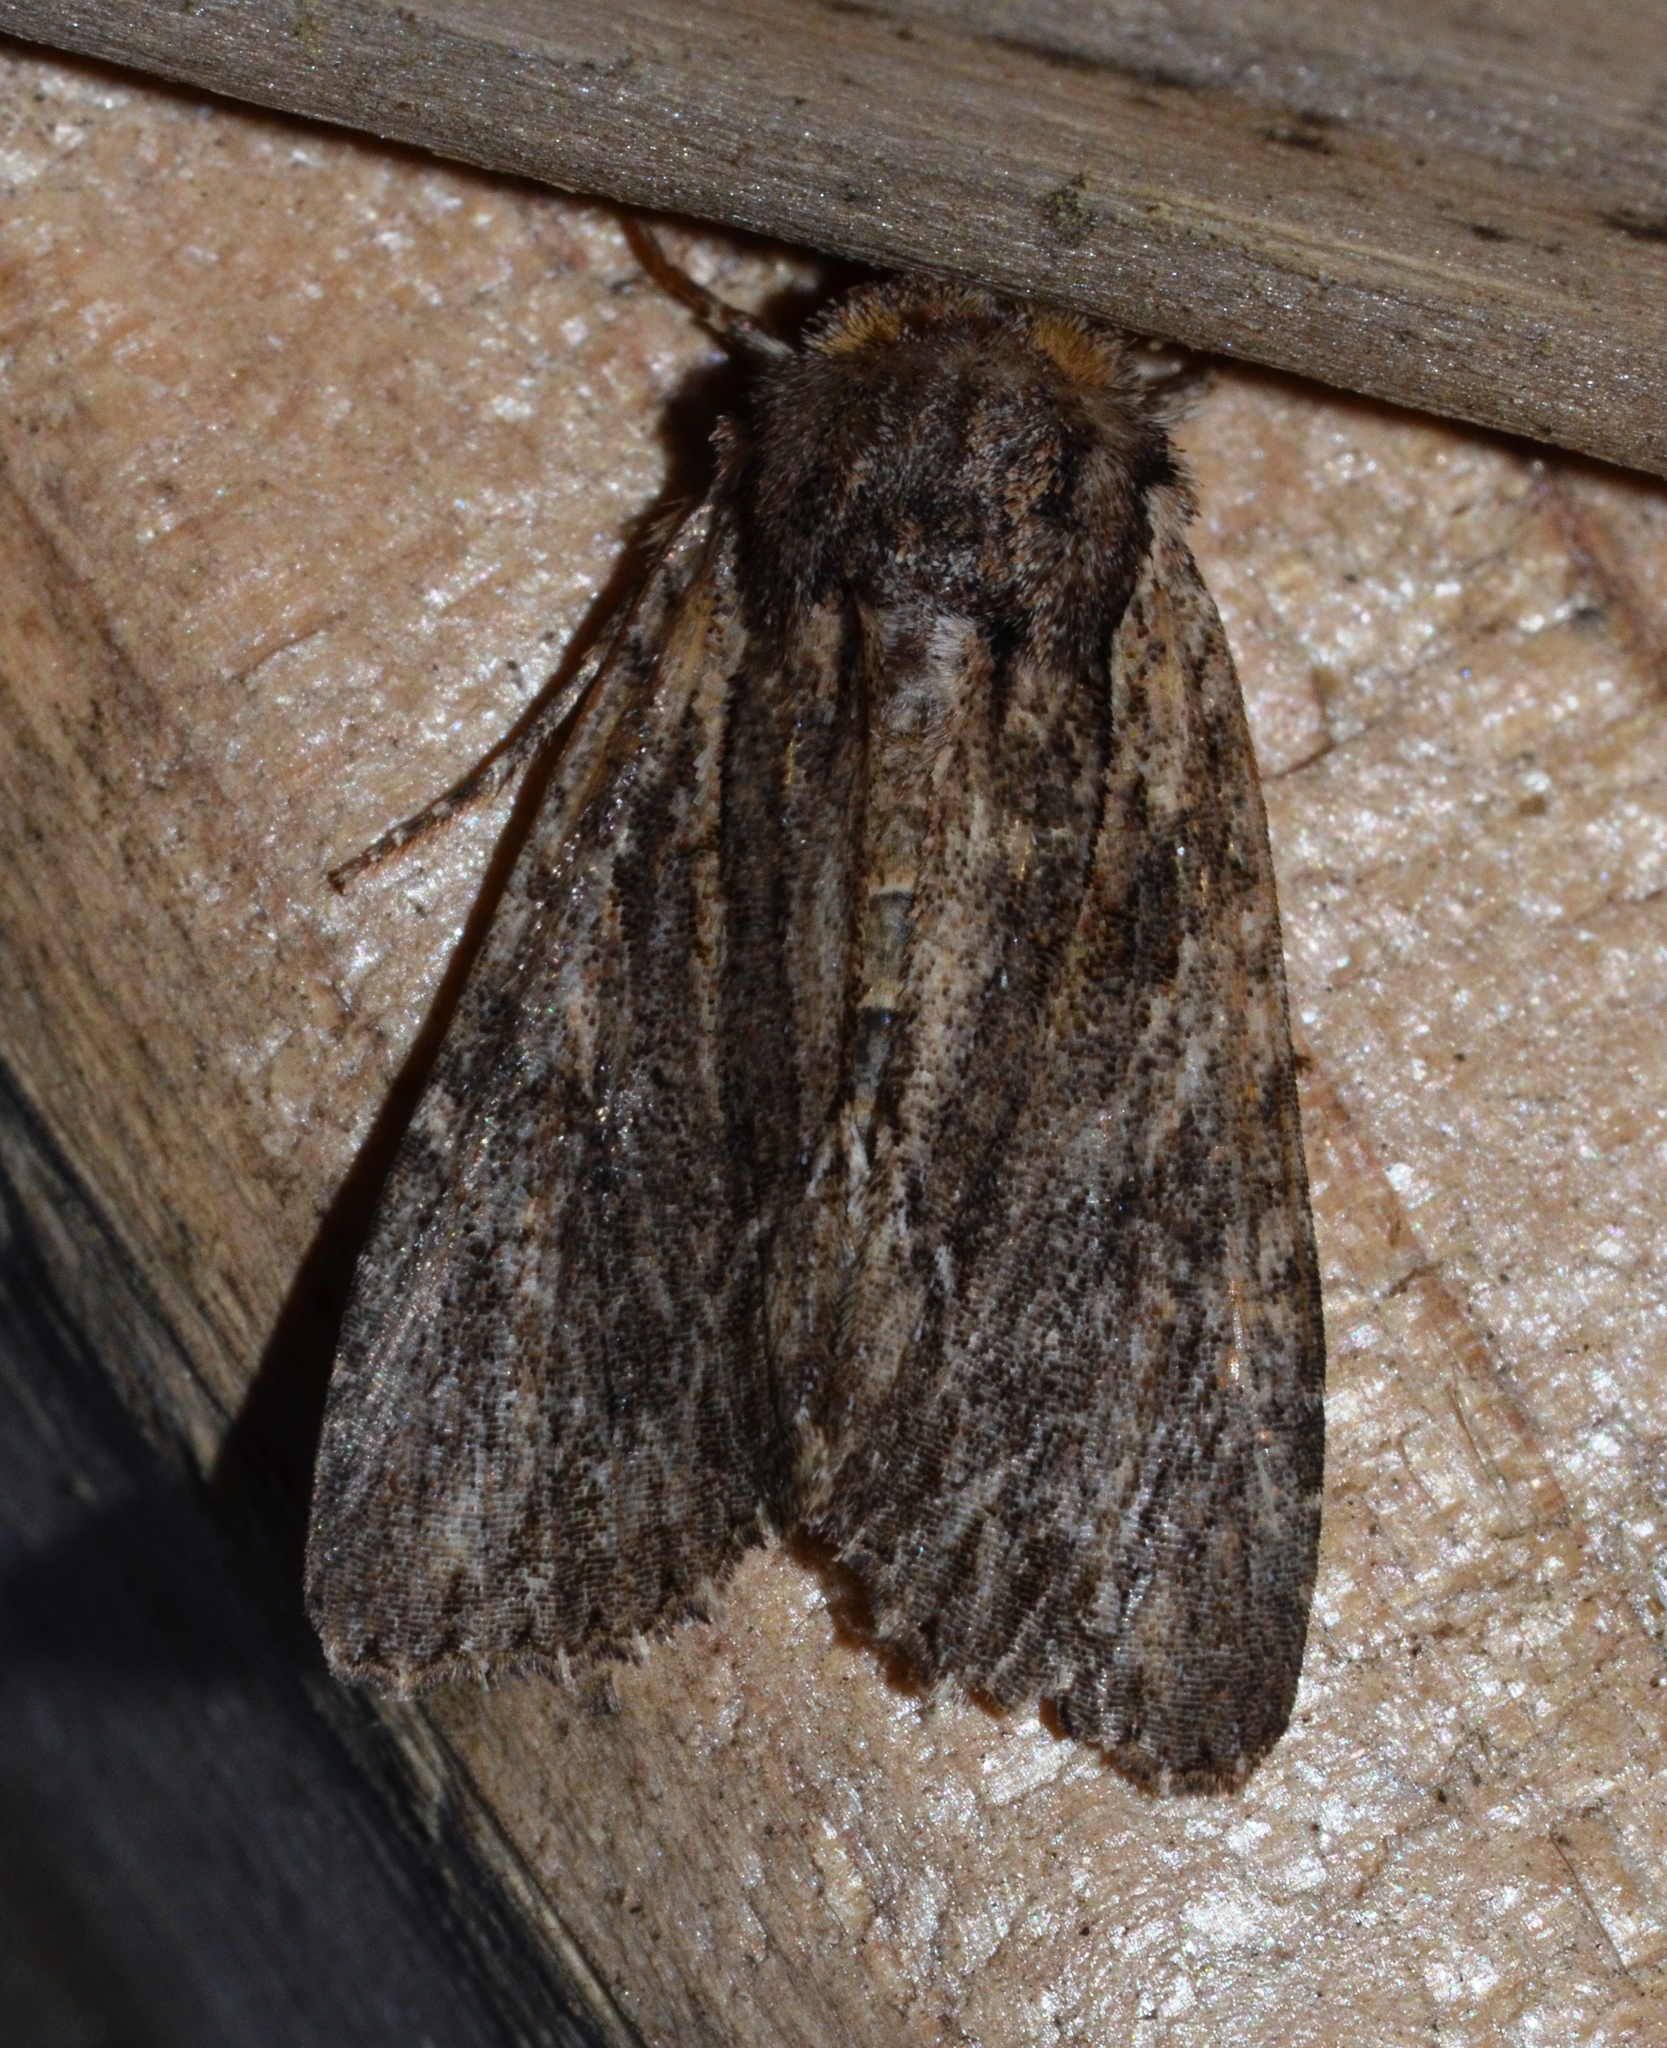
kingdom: Animalia
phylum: Arthropoda
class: Insecta
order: Lepidoptera
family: Noctuidae
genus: Achatia
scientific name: Achatia confusa
